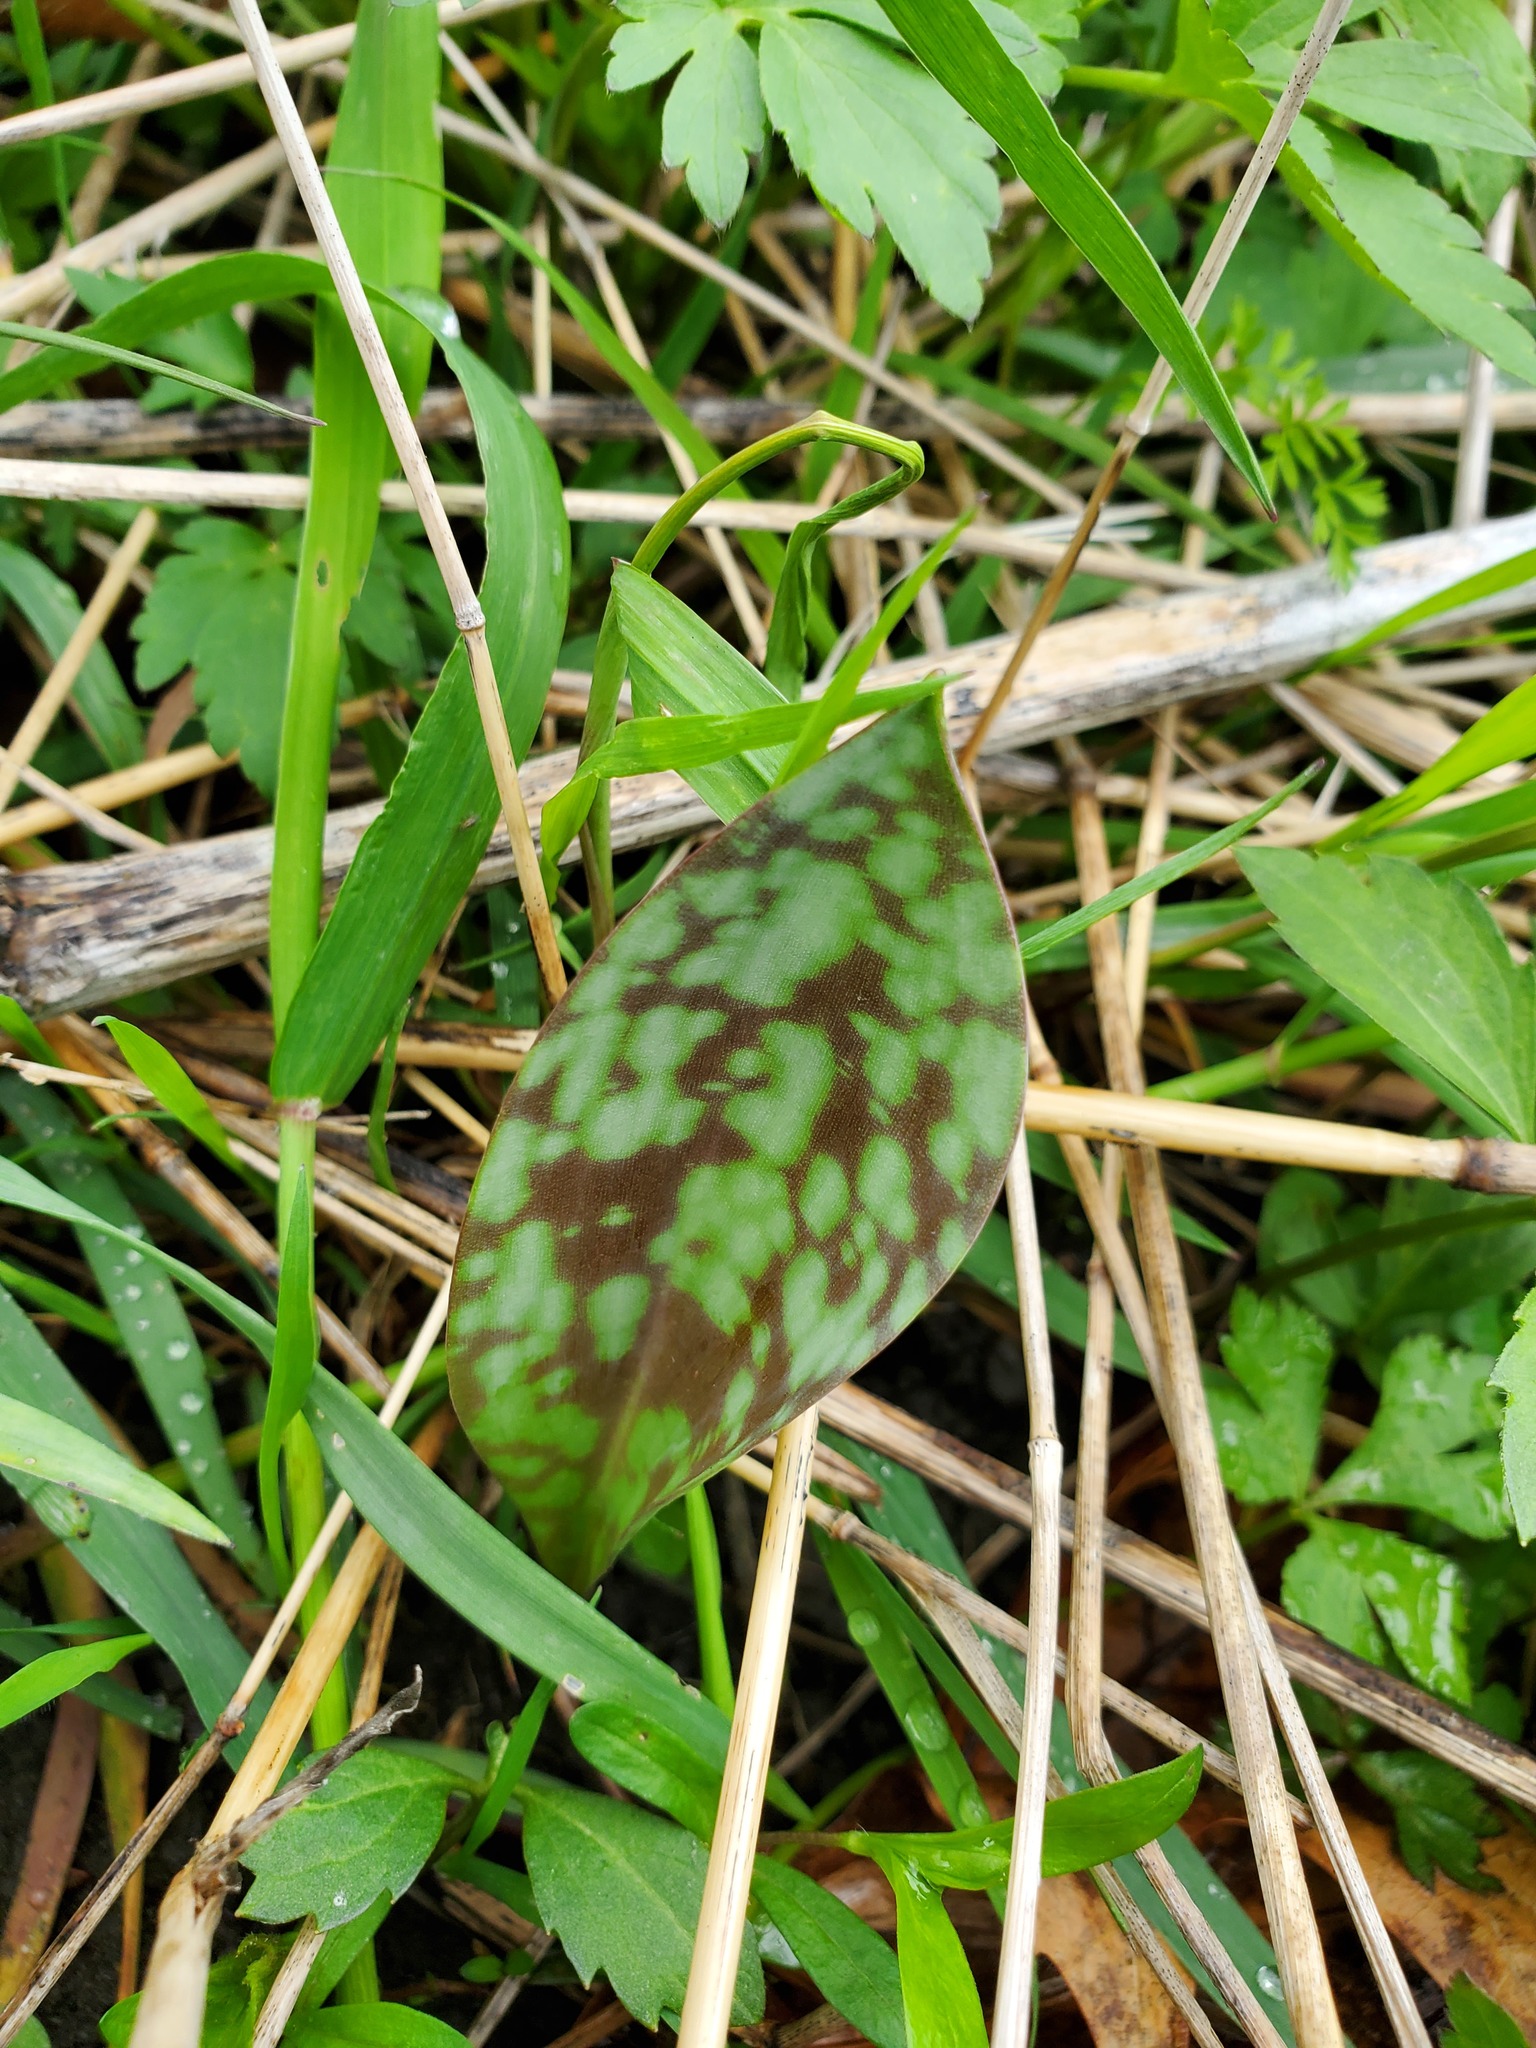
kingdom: Plantae
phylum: Tracheophyta
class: Liliopsida
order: Liliales
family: Liliaceae
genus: Erythronium
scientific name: Erythronium albidum
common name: White trout-lily
